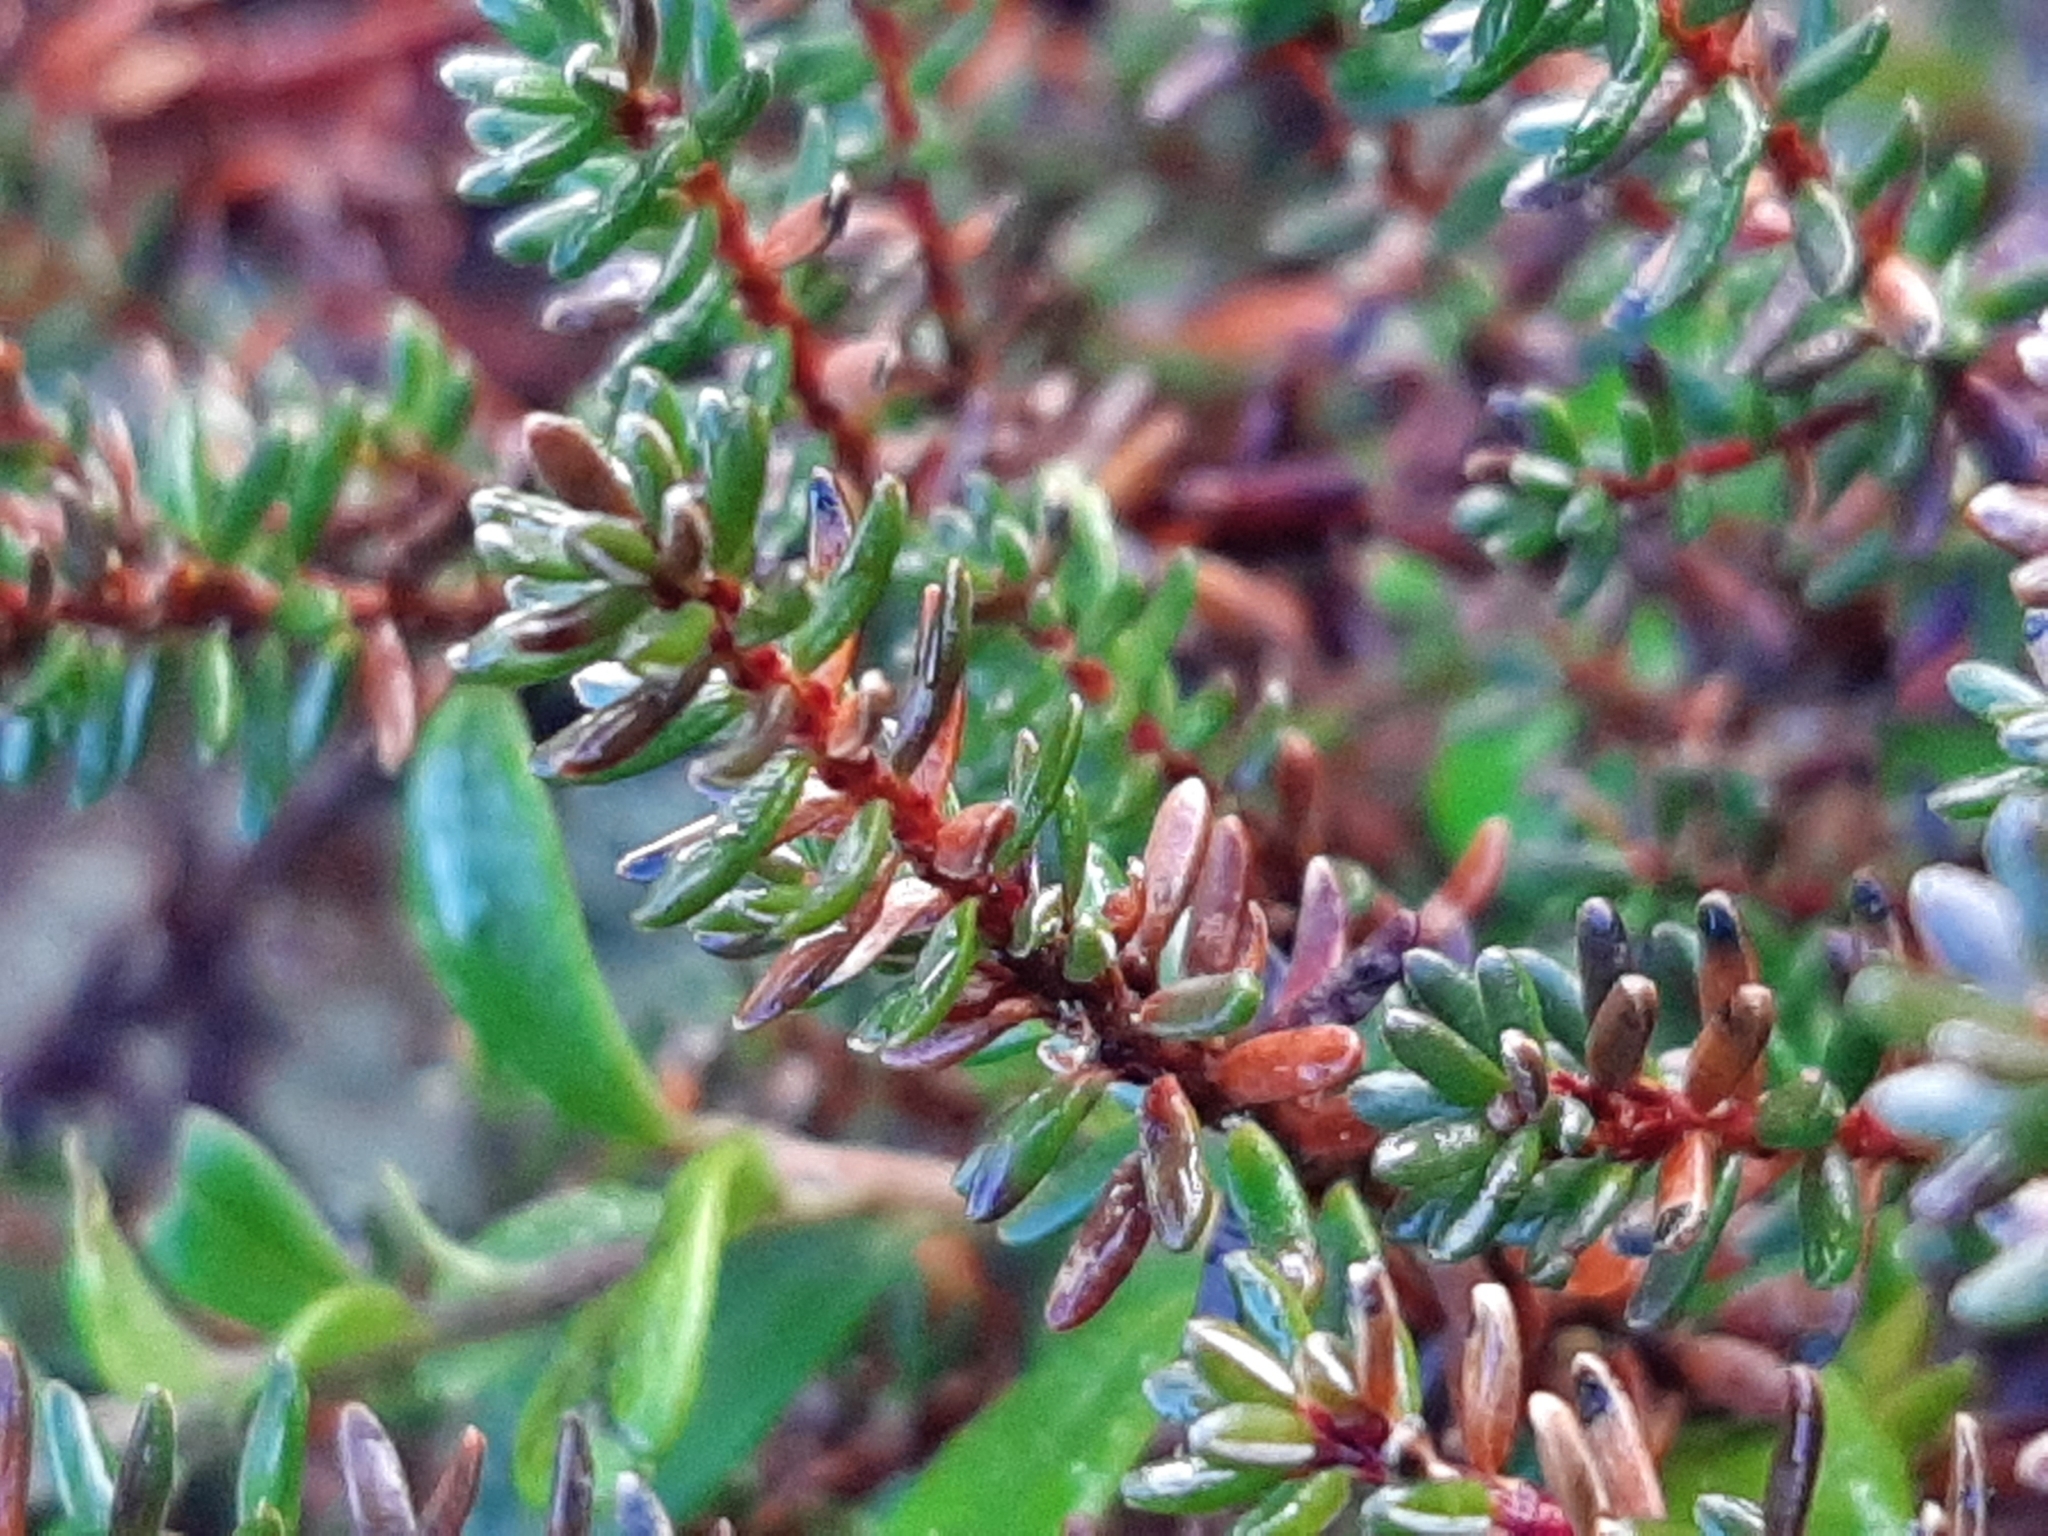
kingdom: Plantae
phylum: Tracheophyta
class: Magnoliopsida
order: Ericales
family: Ericaceae
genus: Empetrum
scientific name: Empetrum nigrum
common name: Black crowberry
